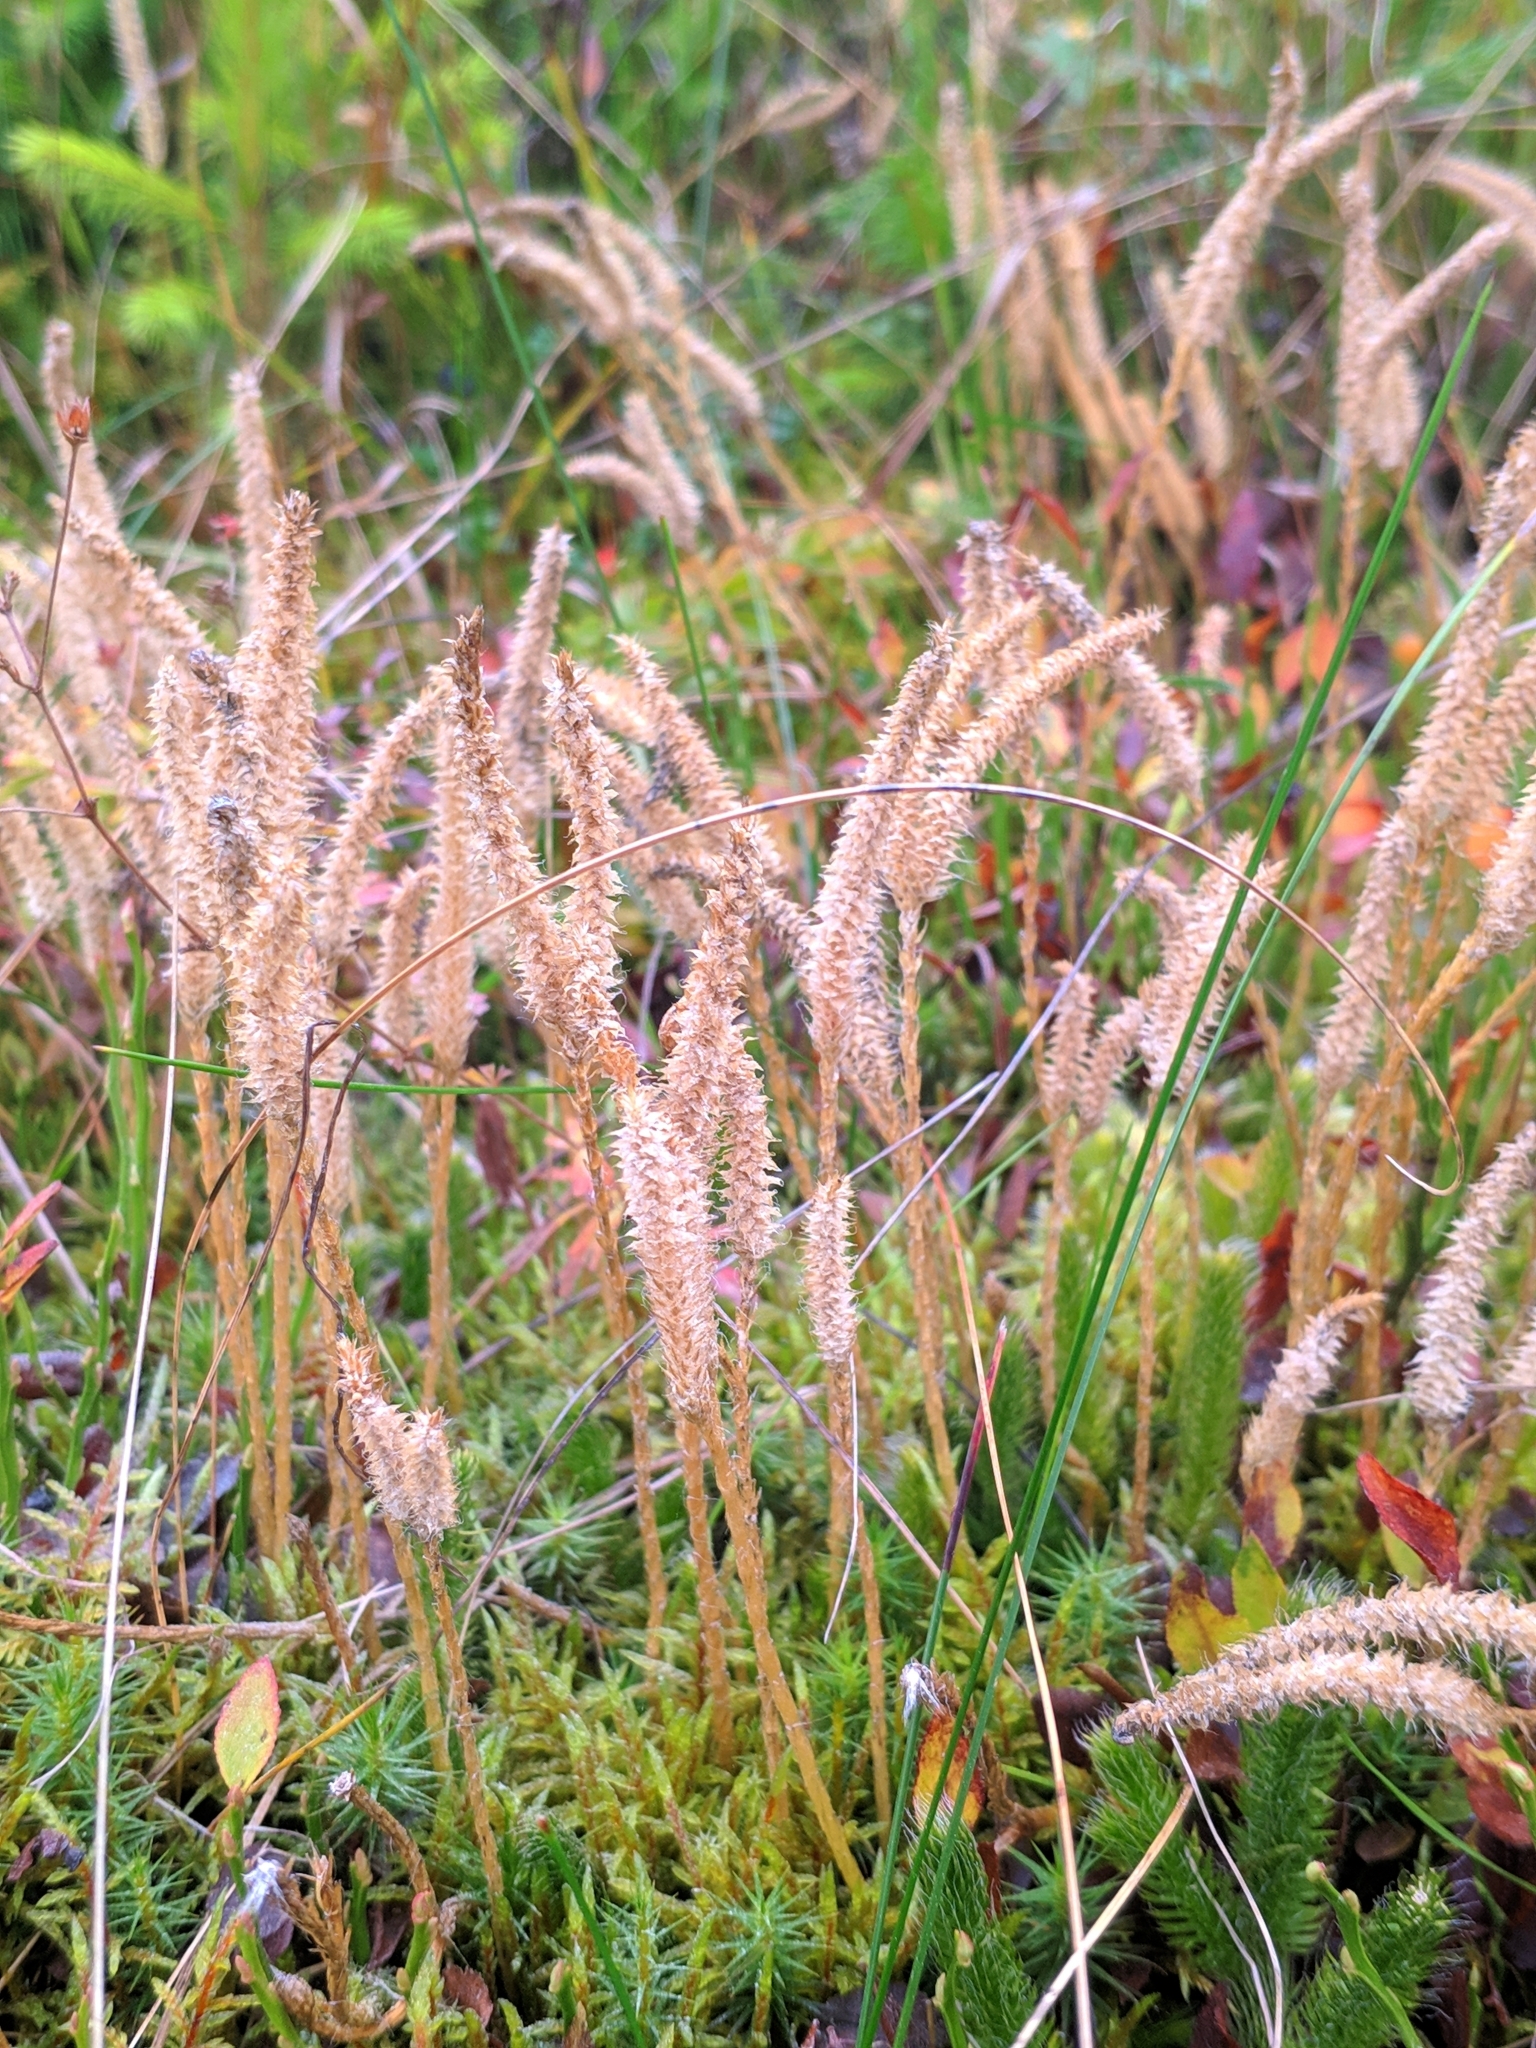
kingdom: Plantae
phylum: Tracheophyta
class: Lycopodiopsida
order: Lycopodiales
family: Lycopodiaceae
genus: Lycopodium
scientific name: Lycopodium clavatum
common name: Stag's-horn clubmoss
